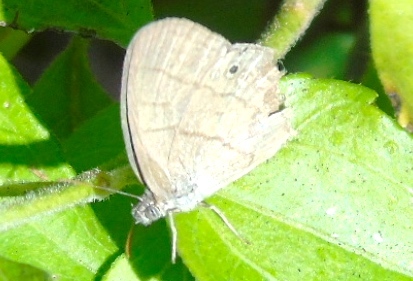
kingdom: Animalia
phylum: Arthropoda
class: Insecta
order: Lepidoptera
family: Satyridae
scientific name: Satyridae
